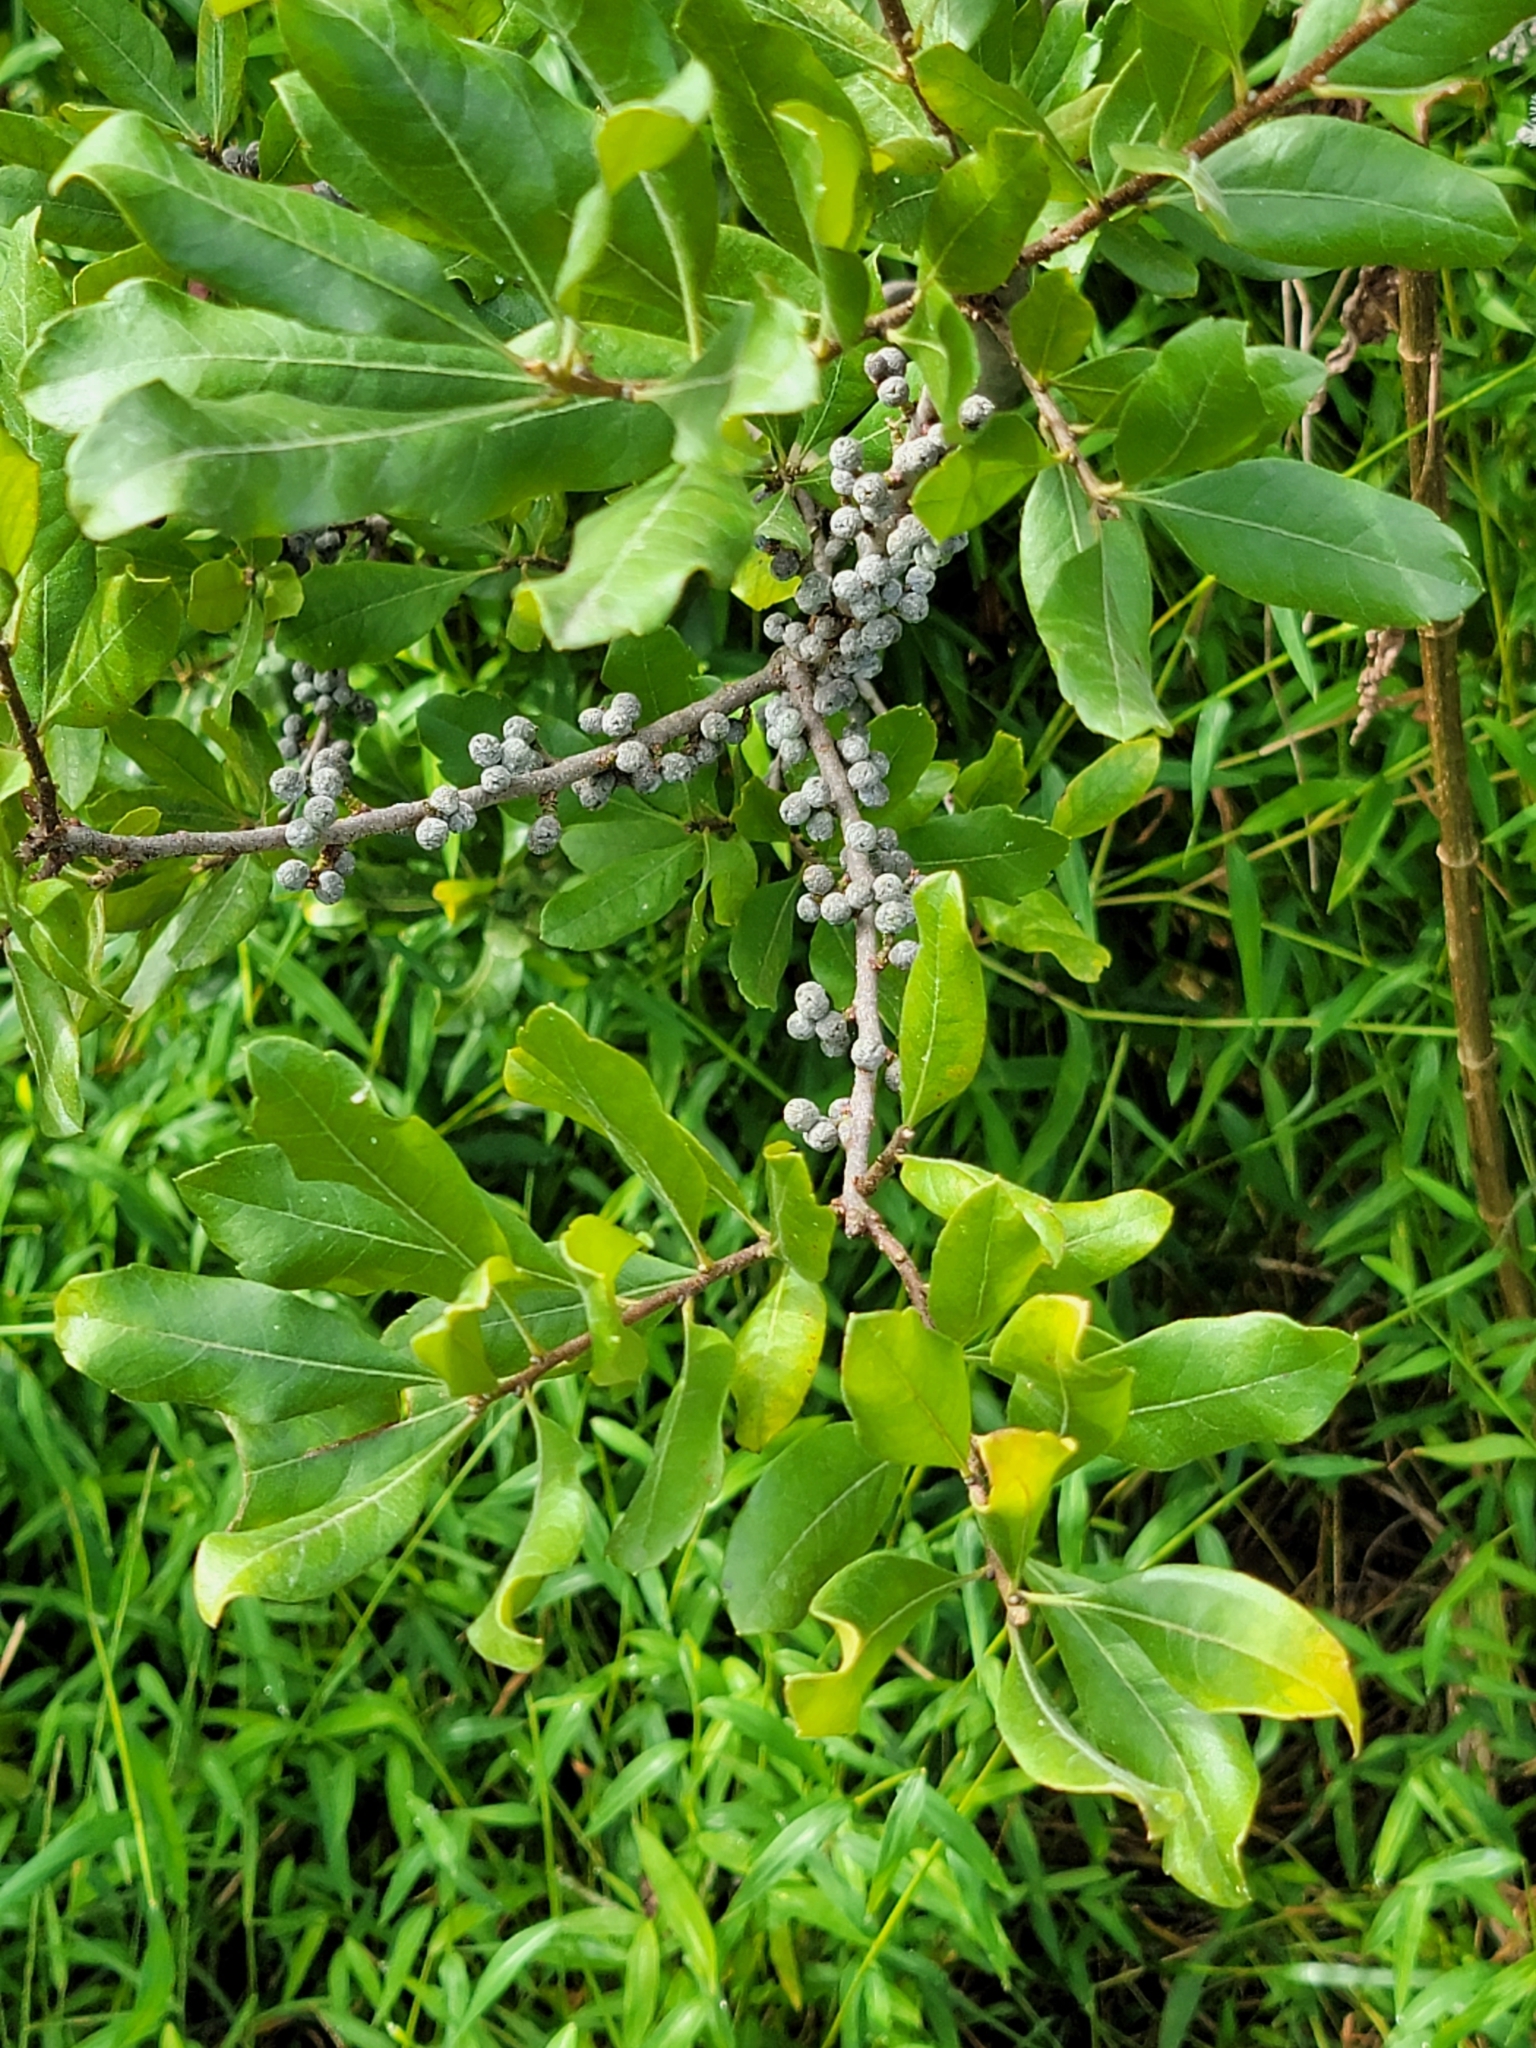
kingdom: Plantae
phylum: Tracheophyta
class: Magnoliopsida
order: Fagales
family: Myricaceae
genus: Morella
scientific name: Morella pensylvanica
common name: Northern bayberry
